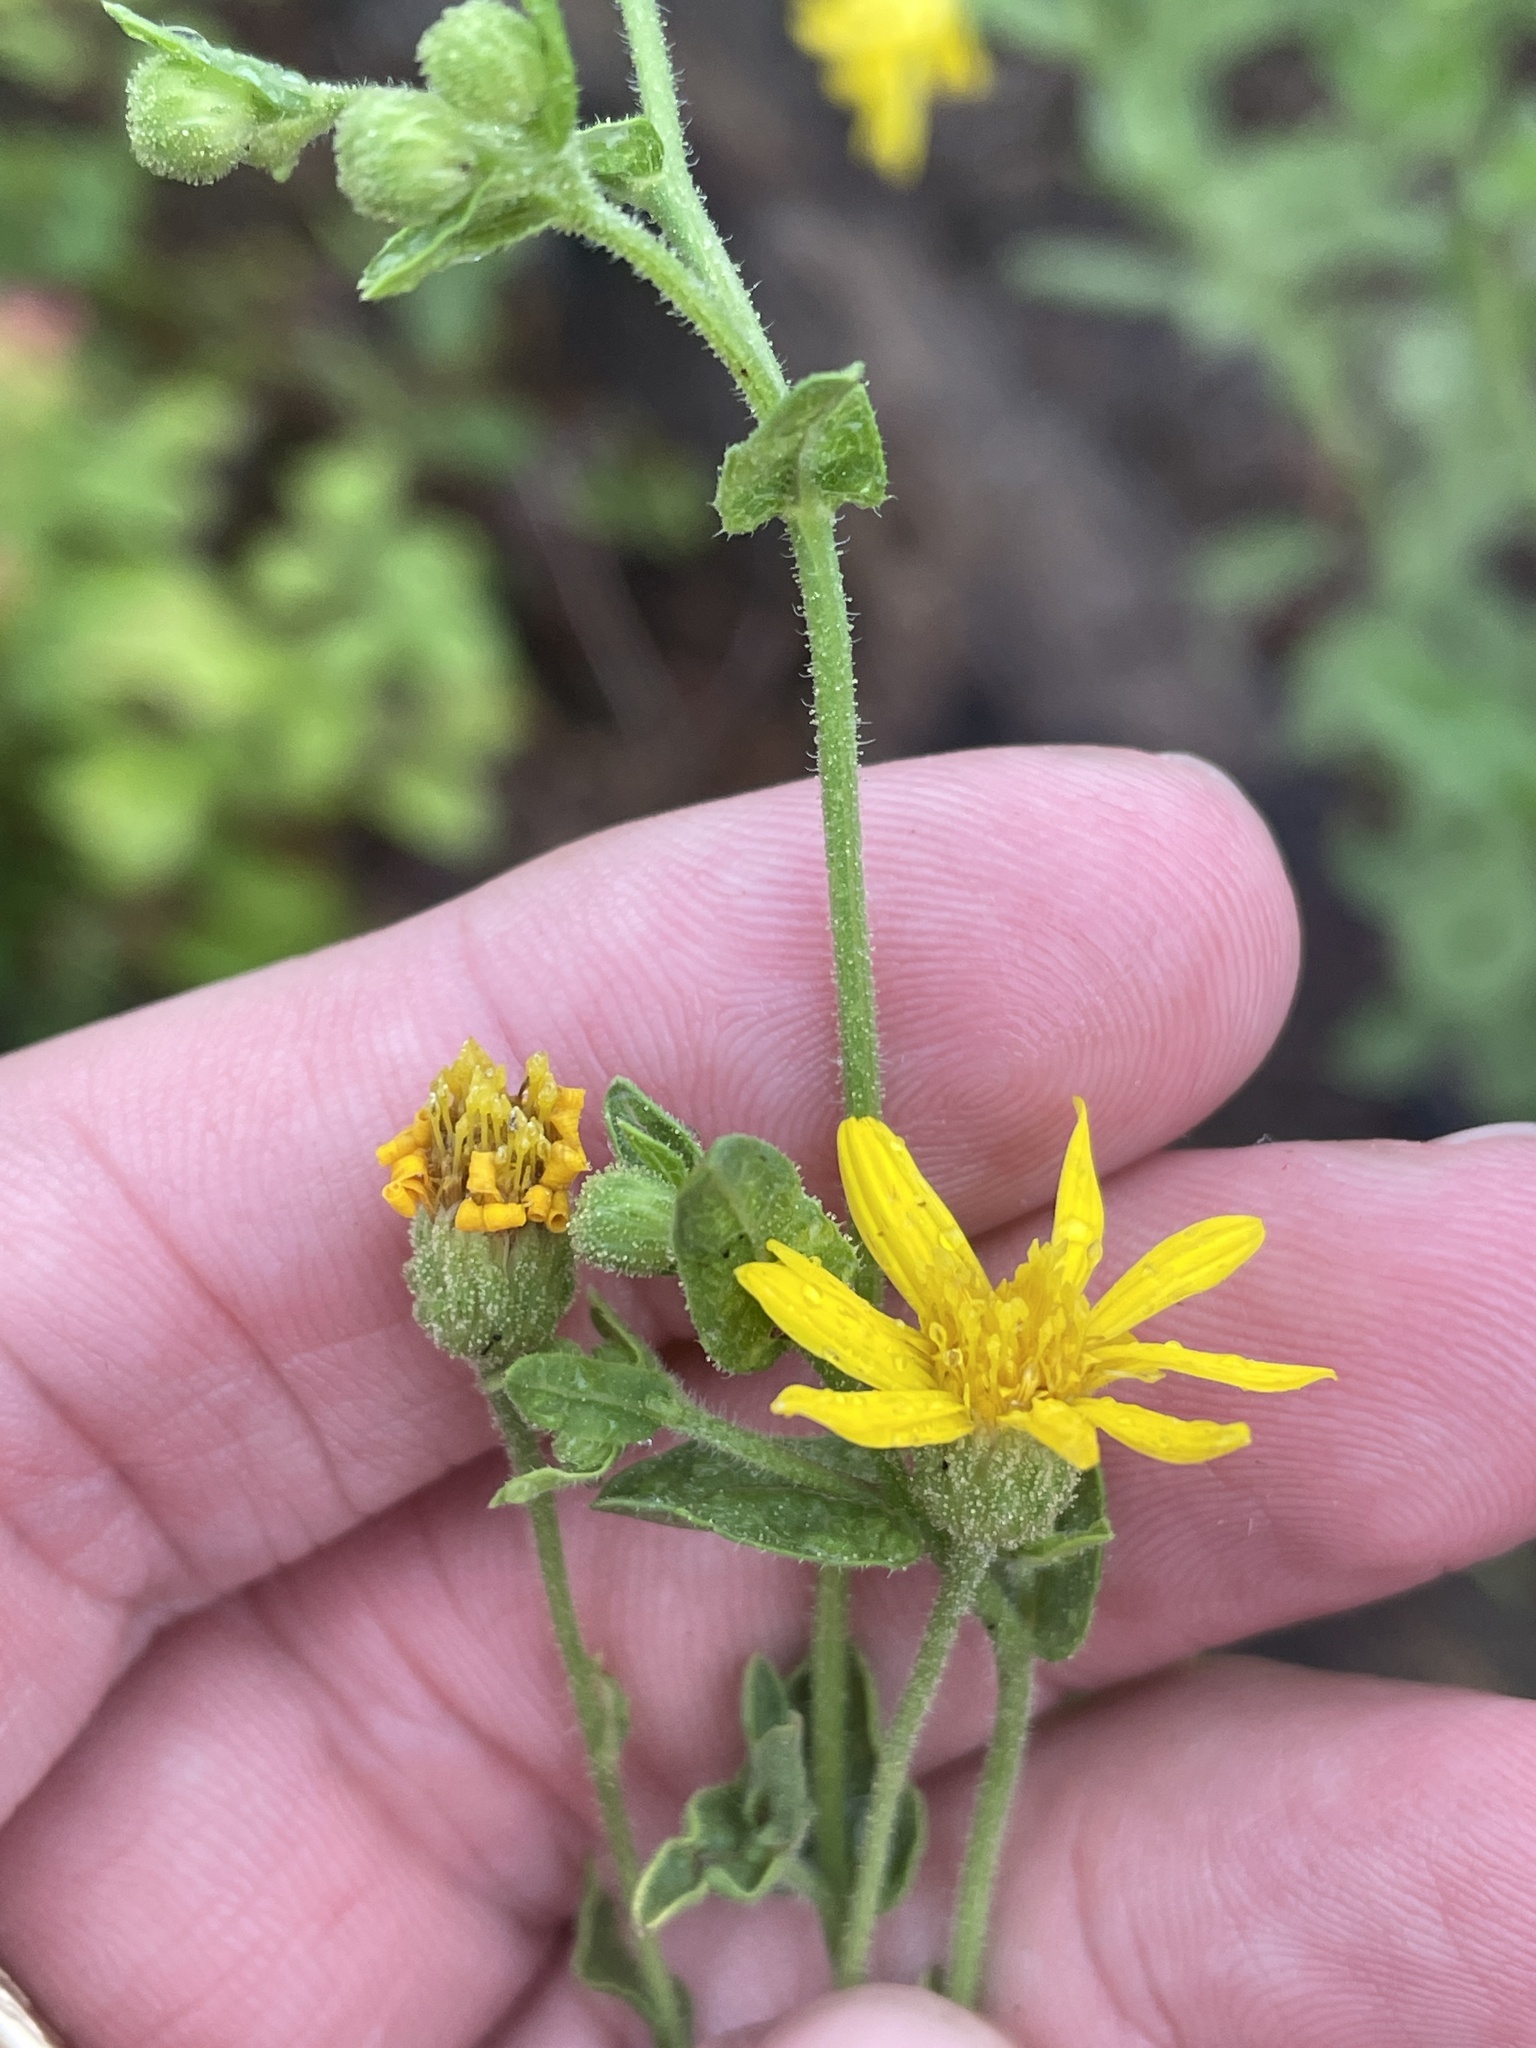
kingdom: Plantae
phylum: Tracheophyta
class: Magnoliopsida
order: Asterales
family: Asteraceae
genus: Heterotheca
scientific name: Heterotheca subaxillaris
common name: Camphorweed
